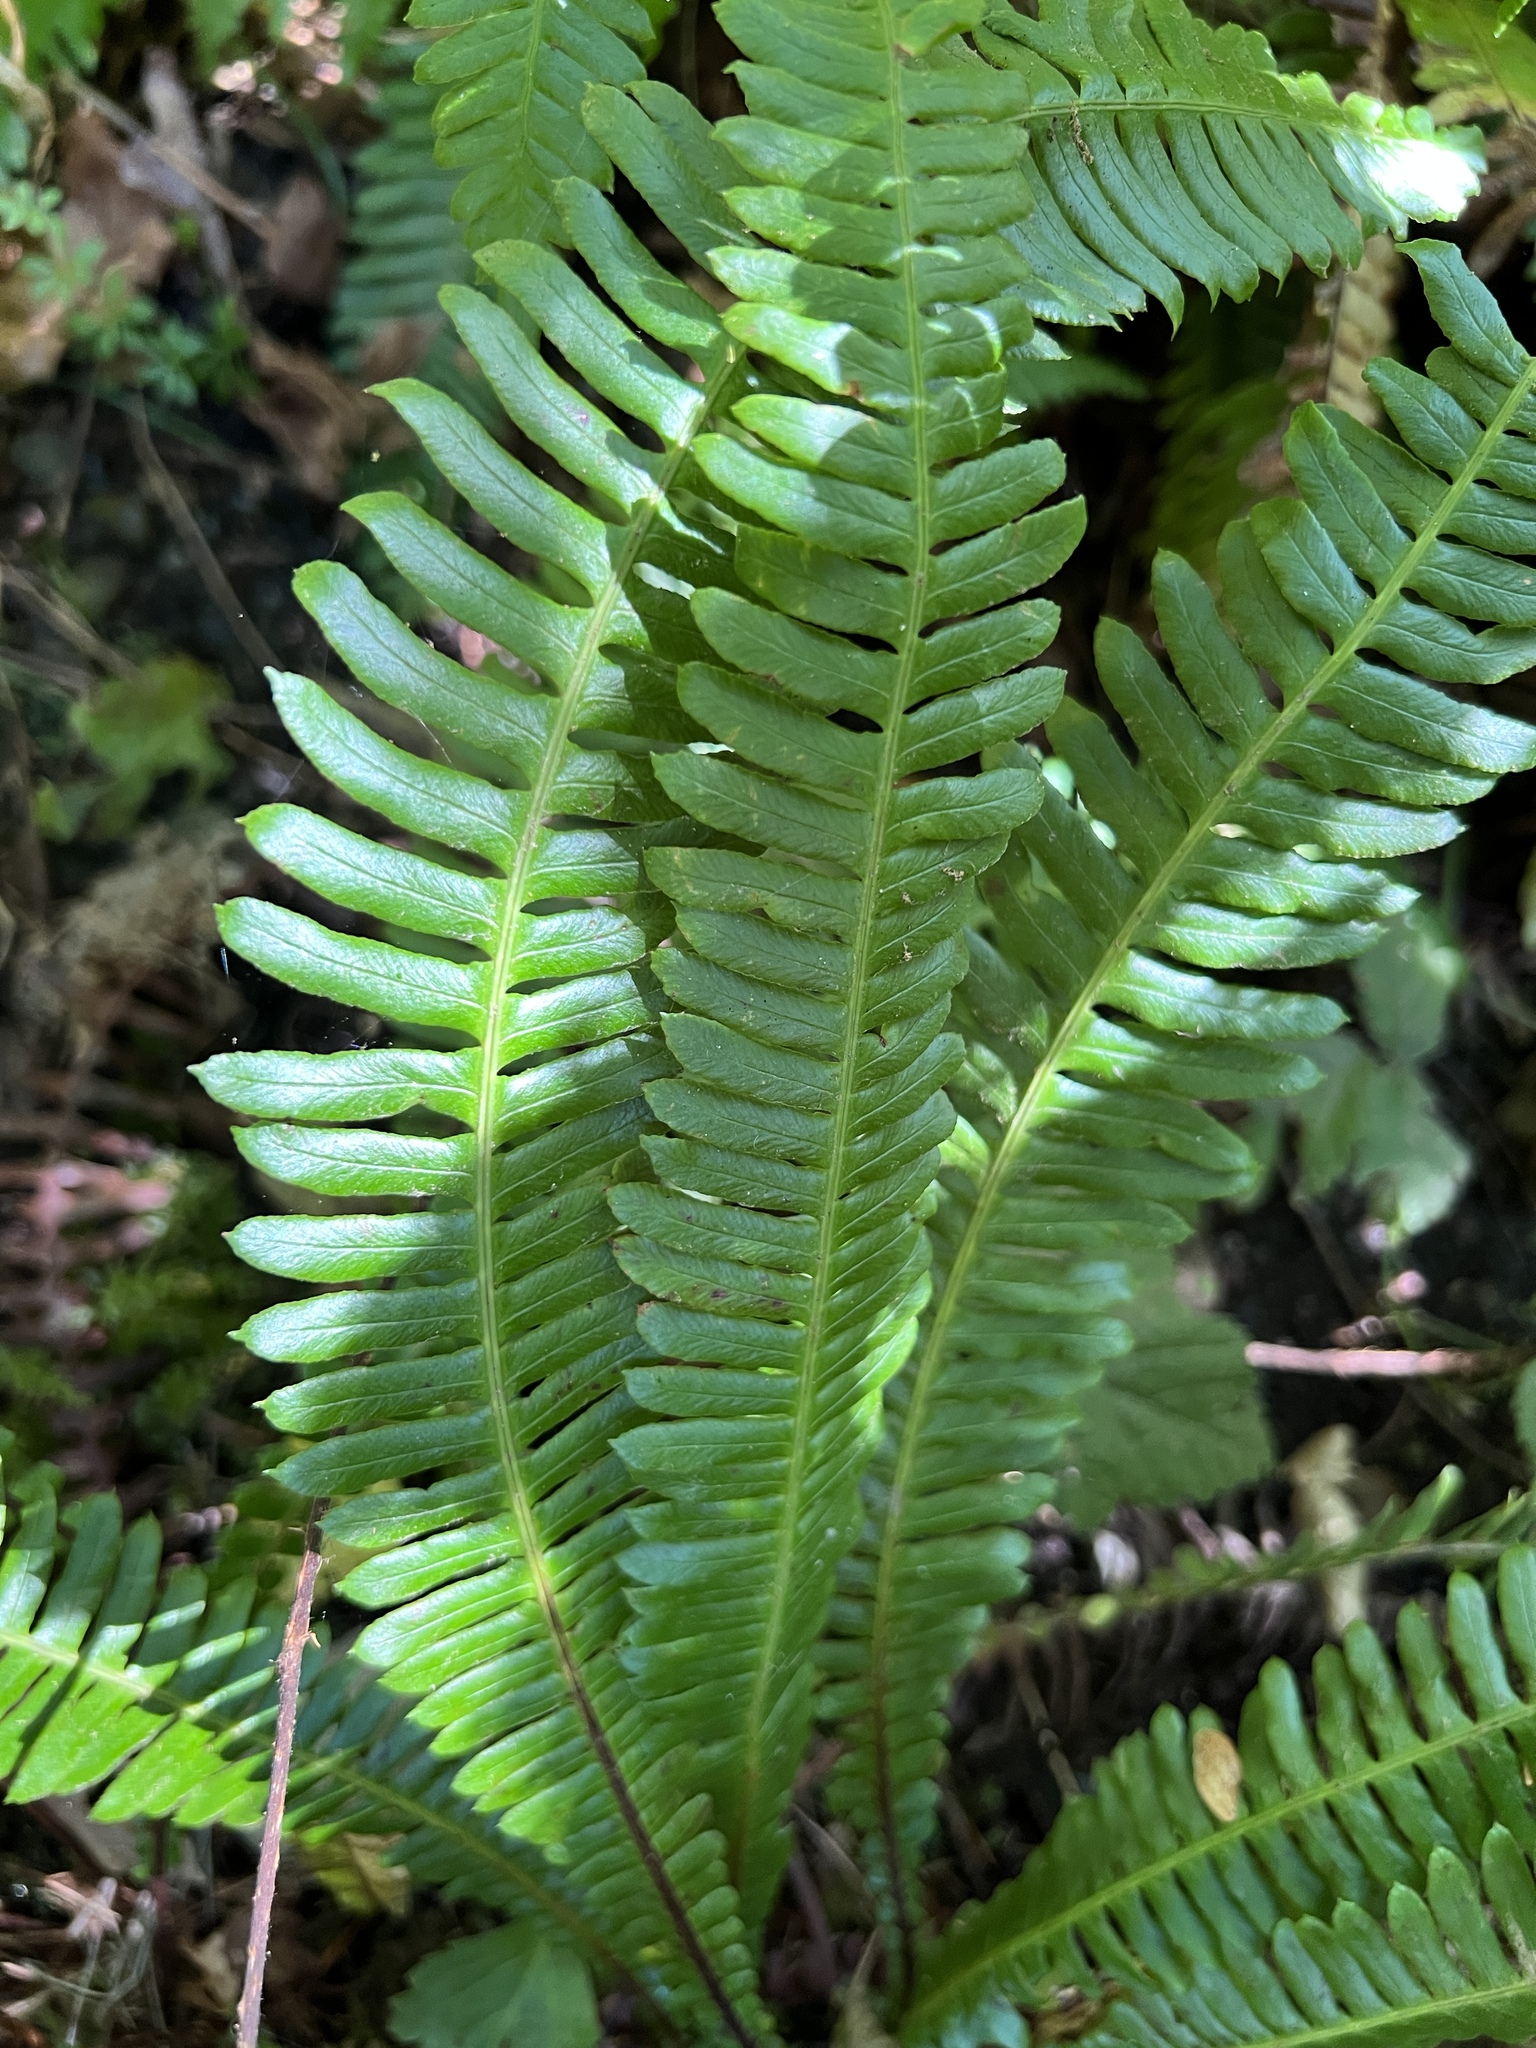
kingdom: Plantae
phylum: Tracheophyta
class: Polypodiopsida
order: Polypodiales
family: Blechnaceae
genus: Struthiopteris
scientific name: Struthiopteris spicant
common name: Deer fern
